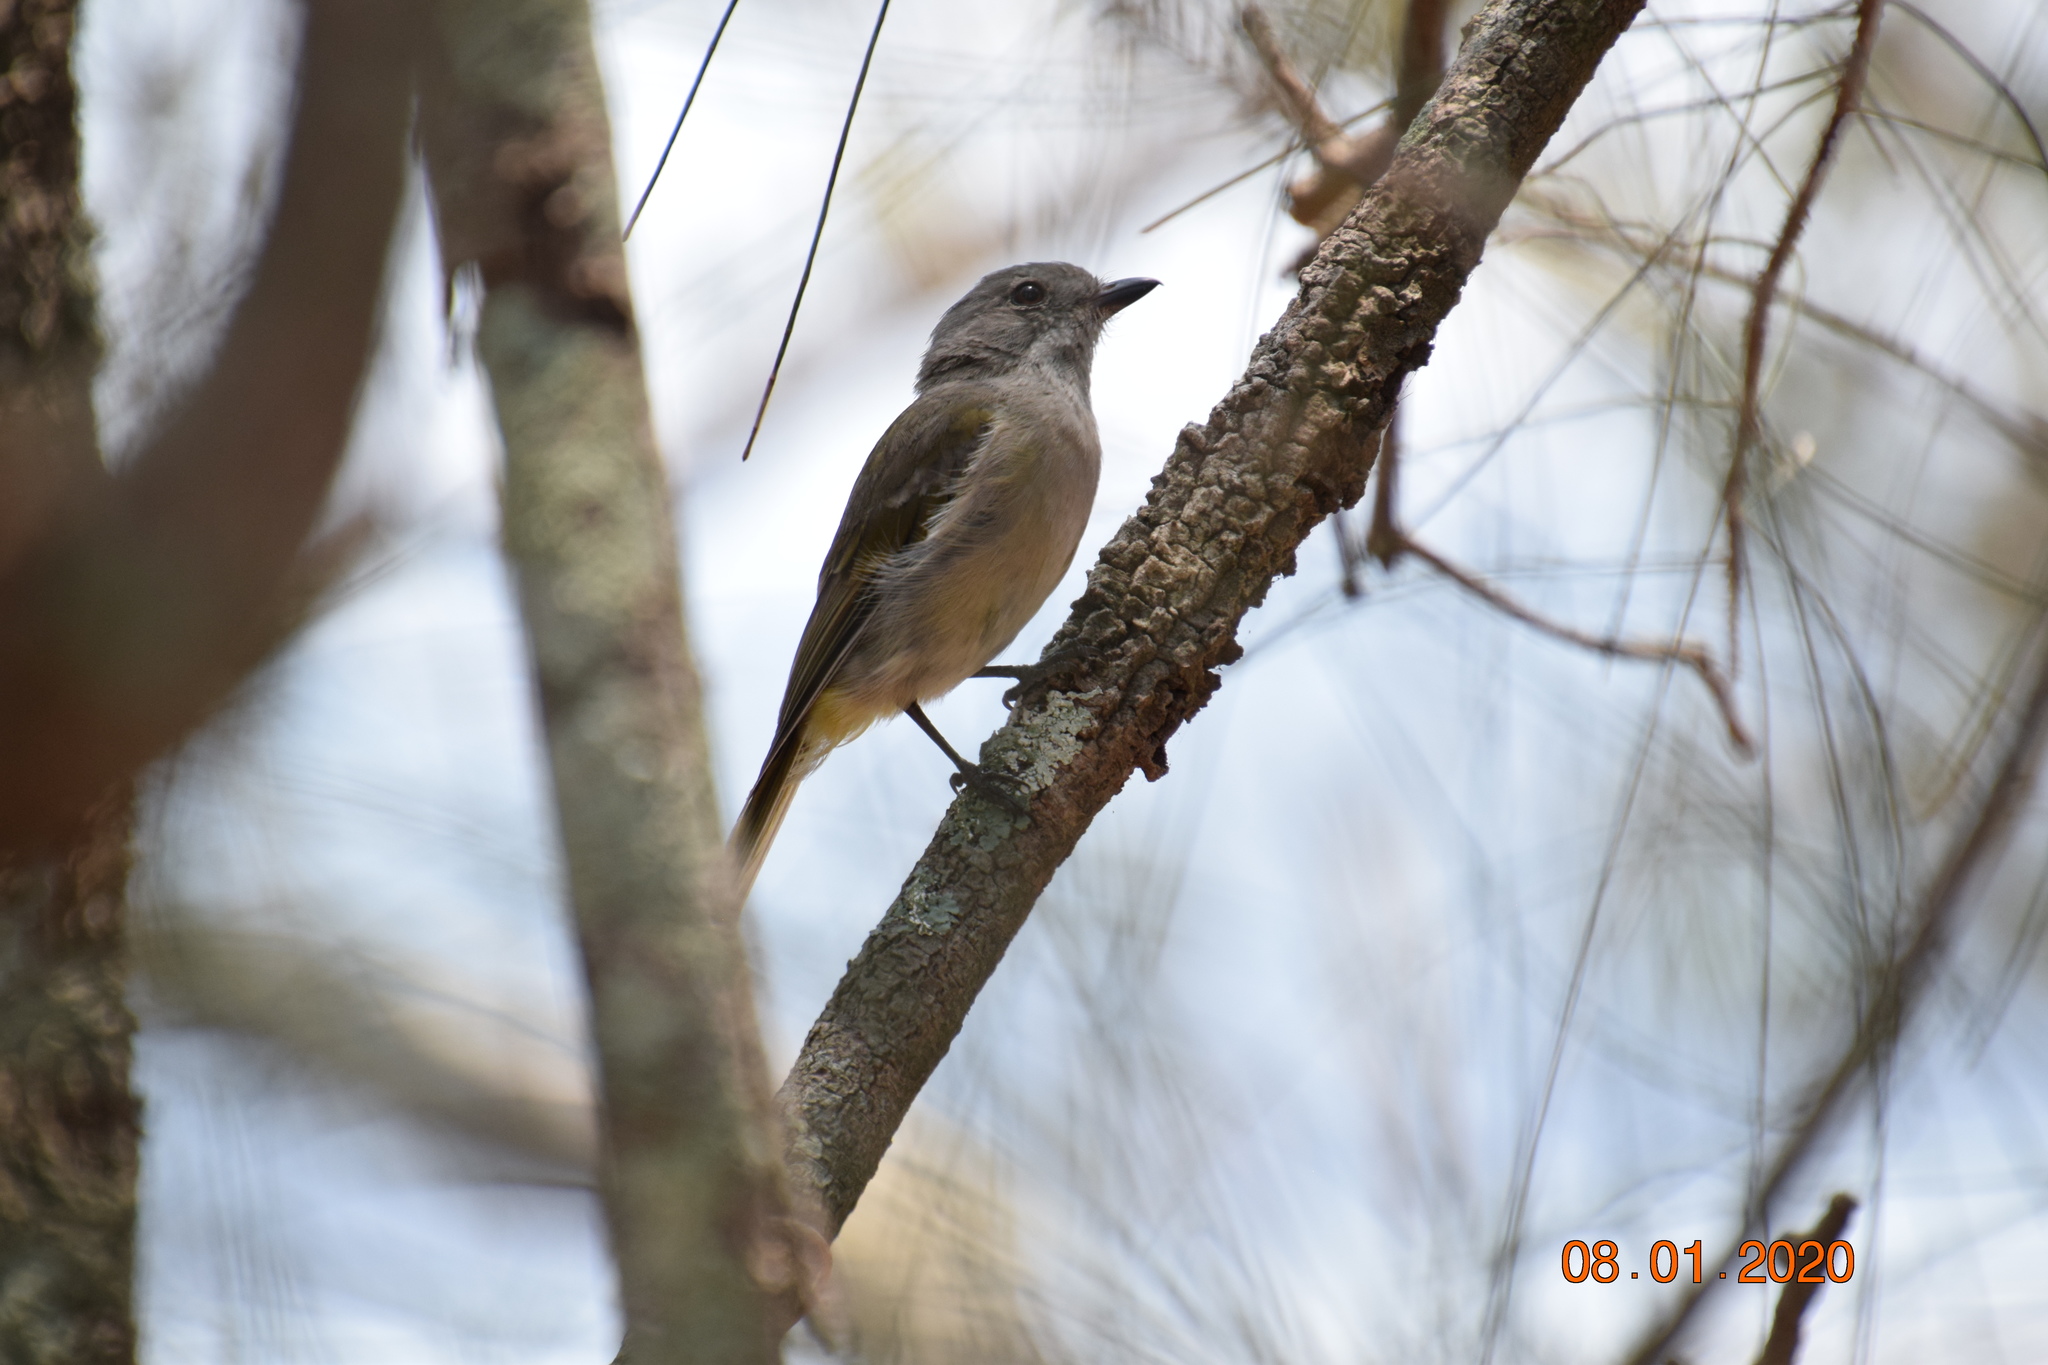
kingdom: Animalia
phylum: Chordata
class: Aves
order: Passeriformes
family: Pachycephalidae
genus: Pachycephala
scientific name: Pachycephala pectoralis
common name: Australian golden whistler
